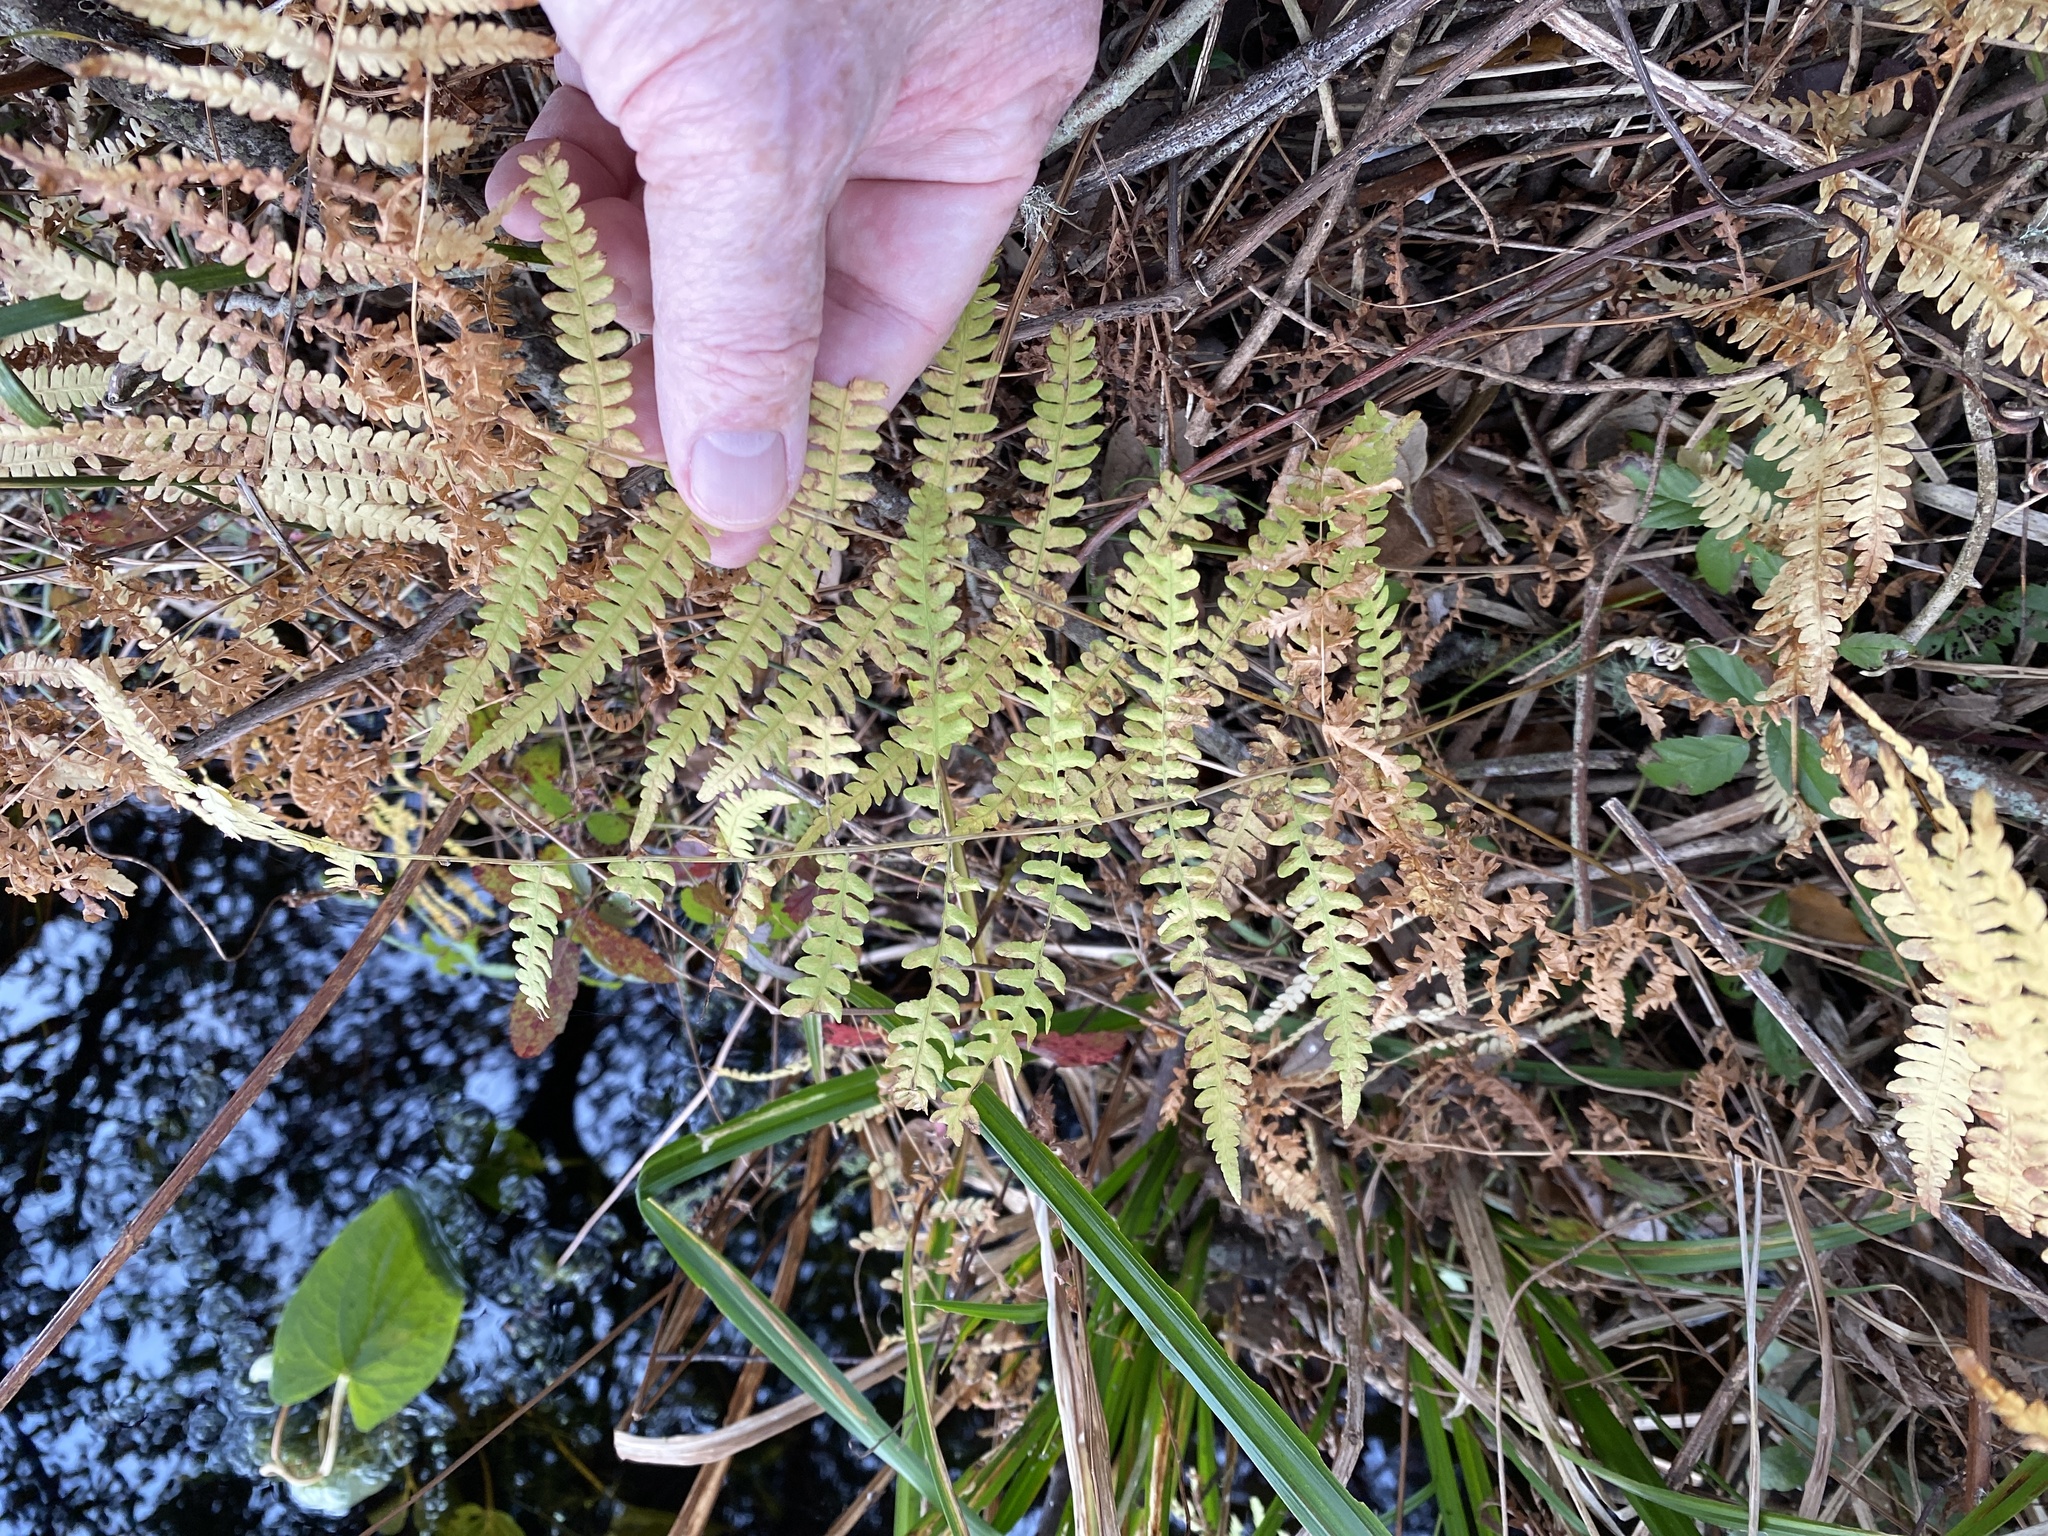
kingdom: Plantae
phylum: Tracheophyta
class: Polypodiopsida
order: Polypodiales
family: Thelypteridaceae
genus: Thelypteris
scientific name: Thelypteris palustris
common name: Marsh fern
